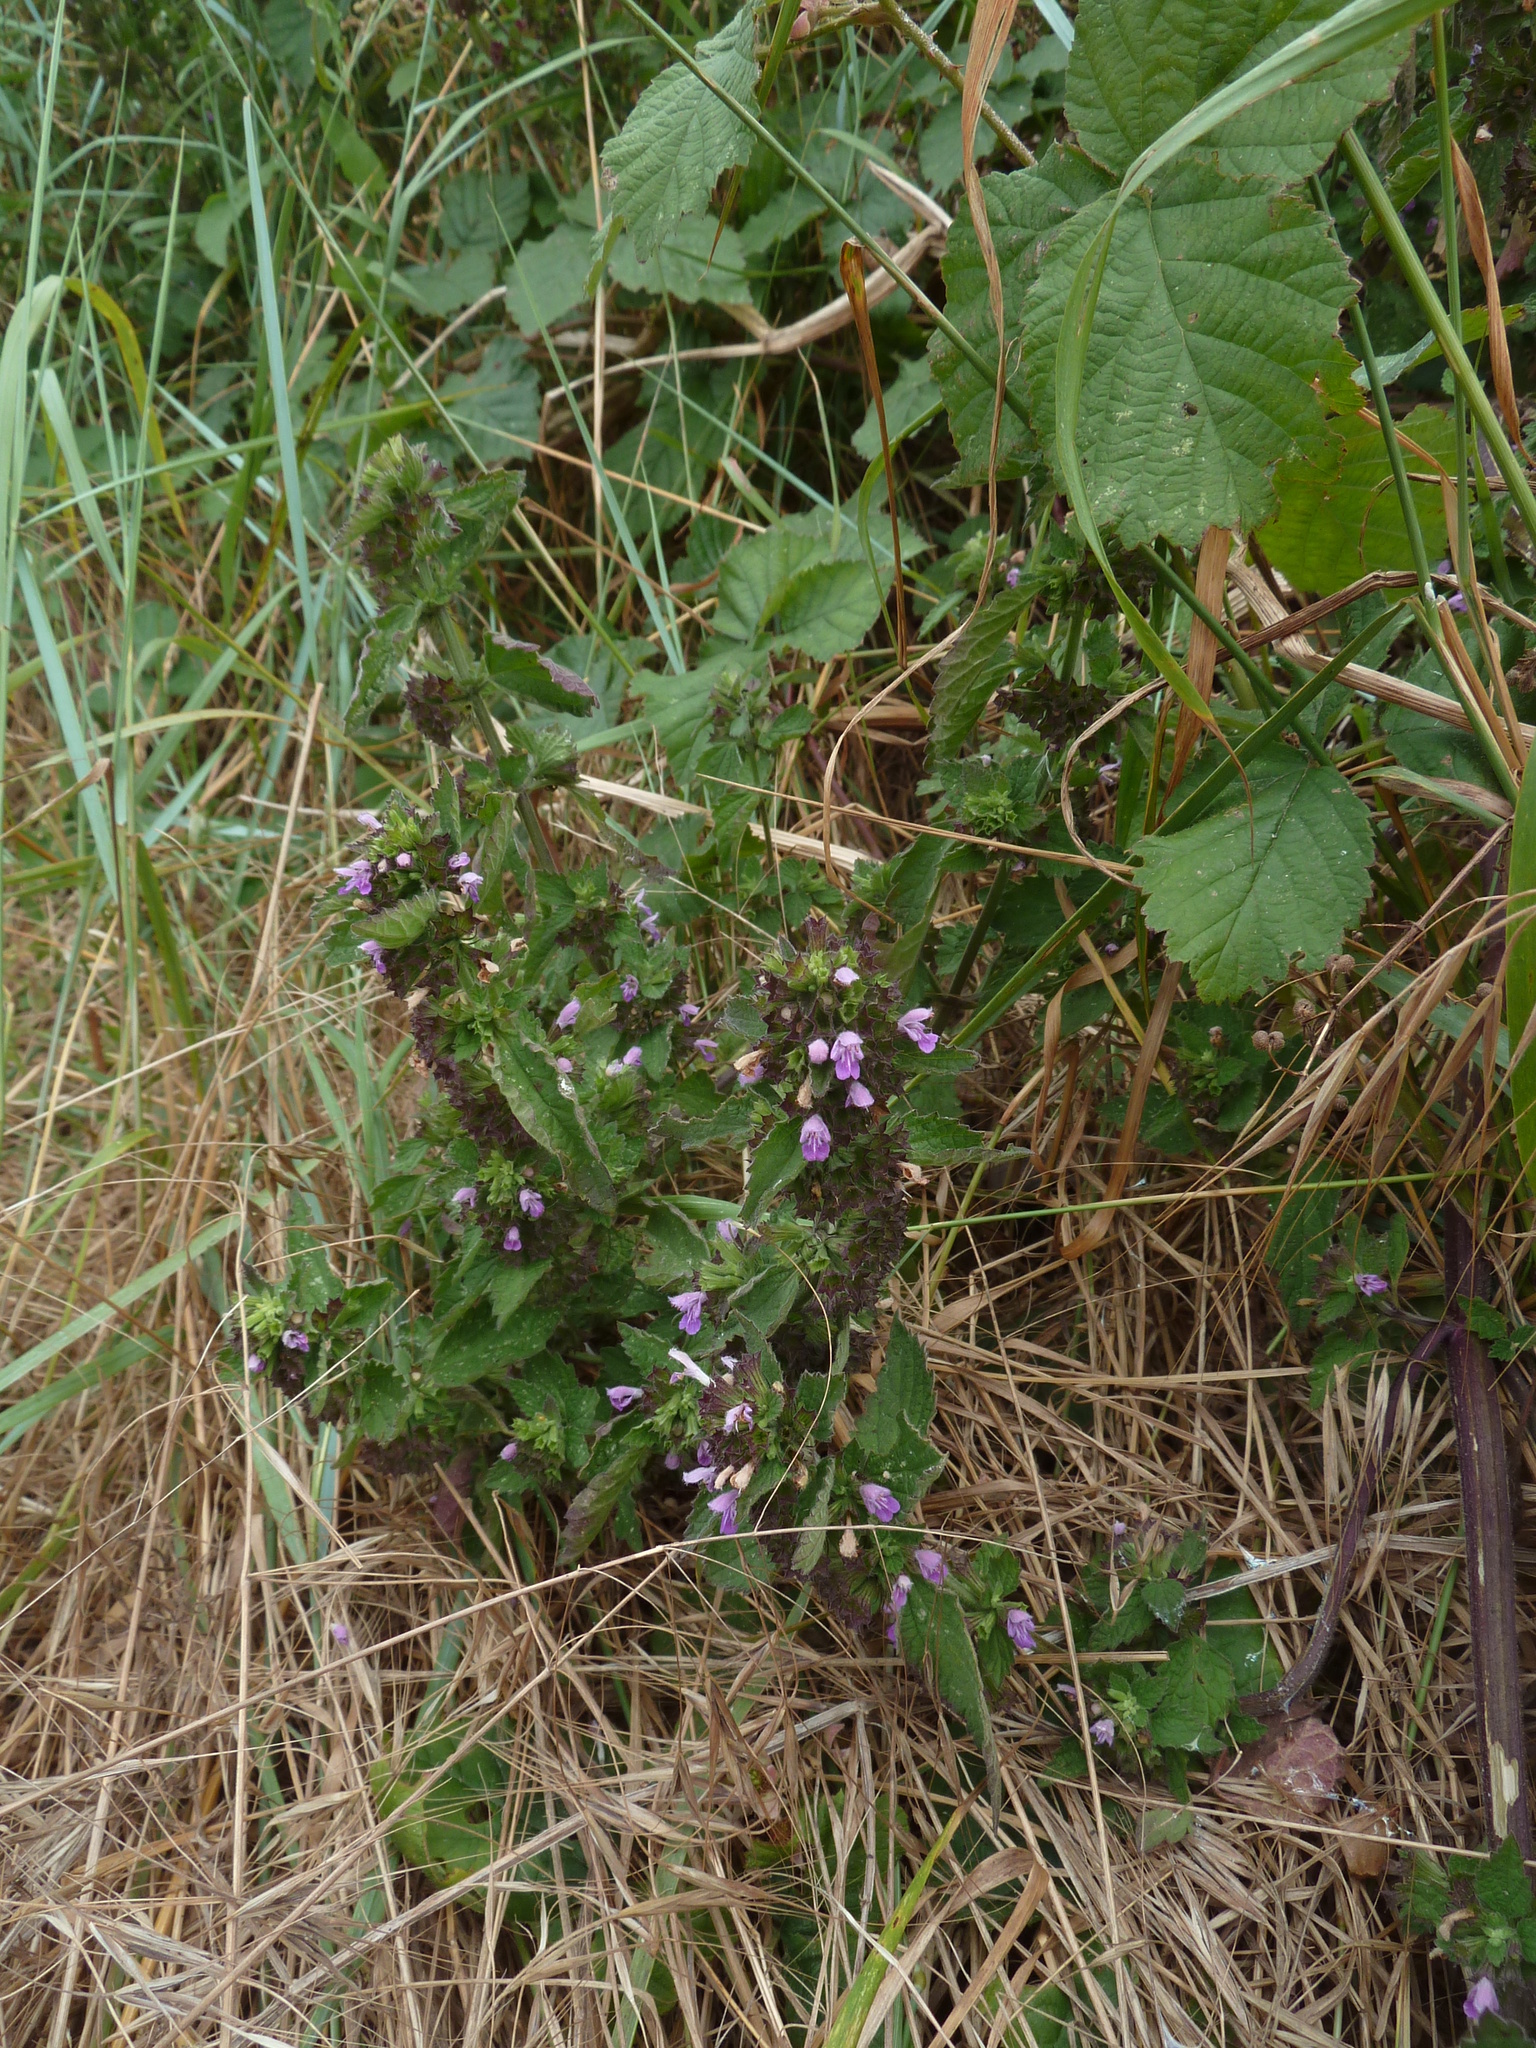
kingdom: Plantae
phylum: Tracheophyta
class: Magnoliopsida
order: Lamiales
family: Lamiaceae
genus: Ballota
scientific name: Ballota nigra
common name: Black horehound
